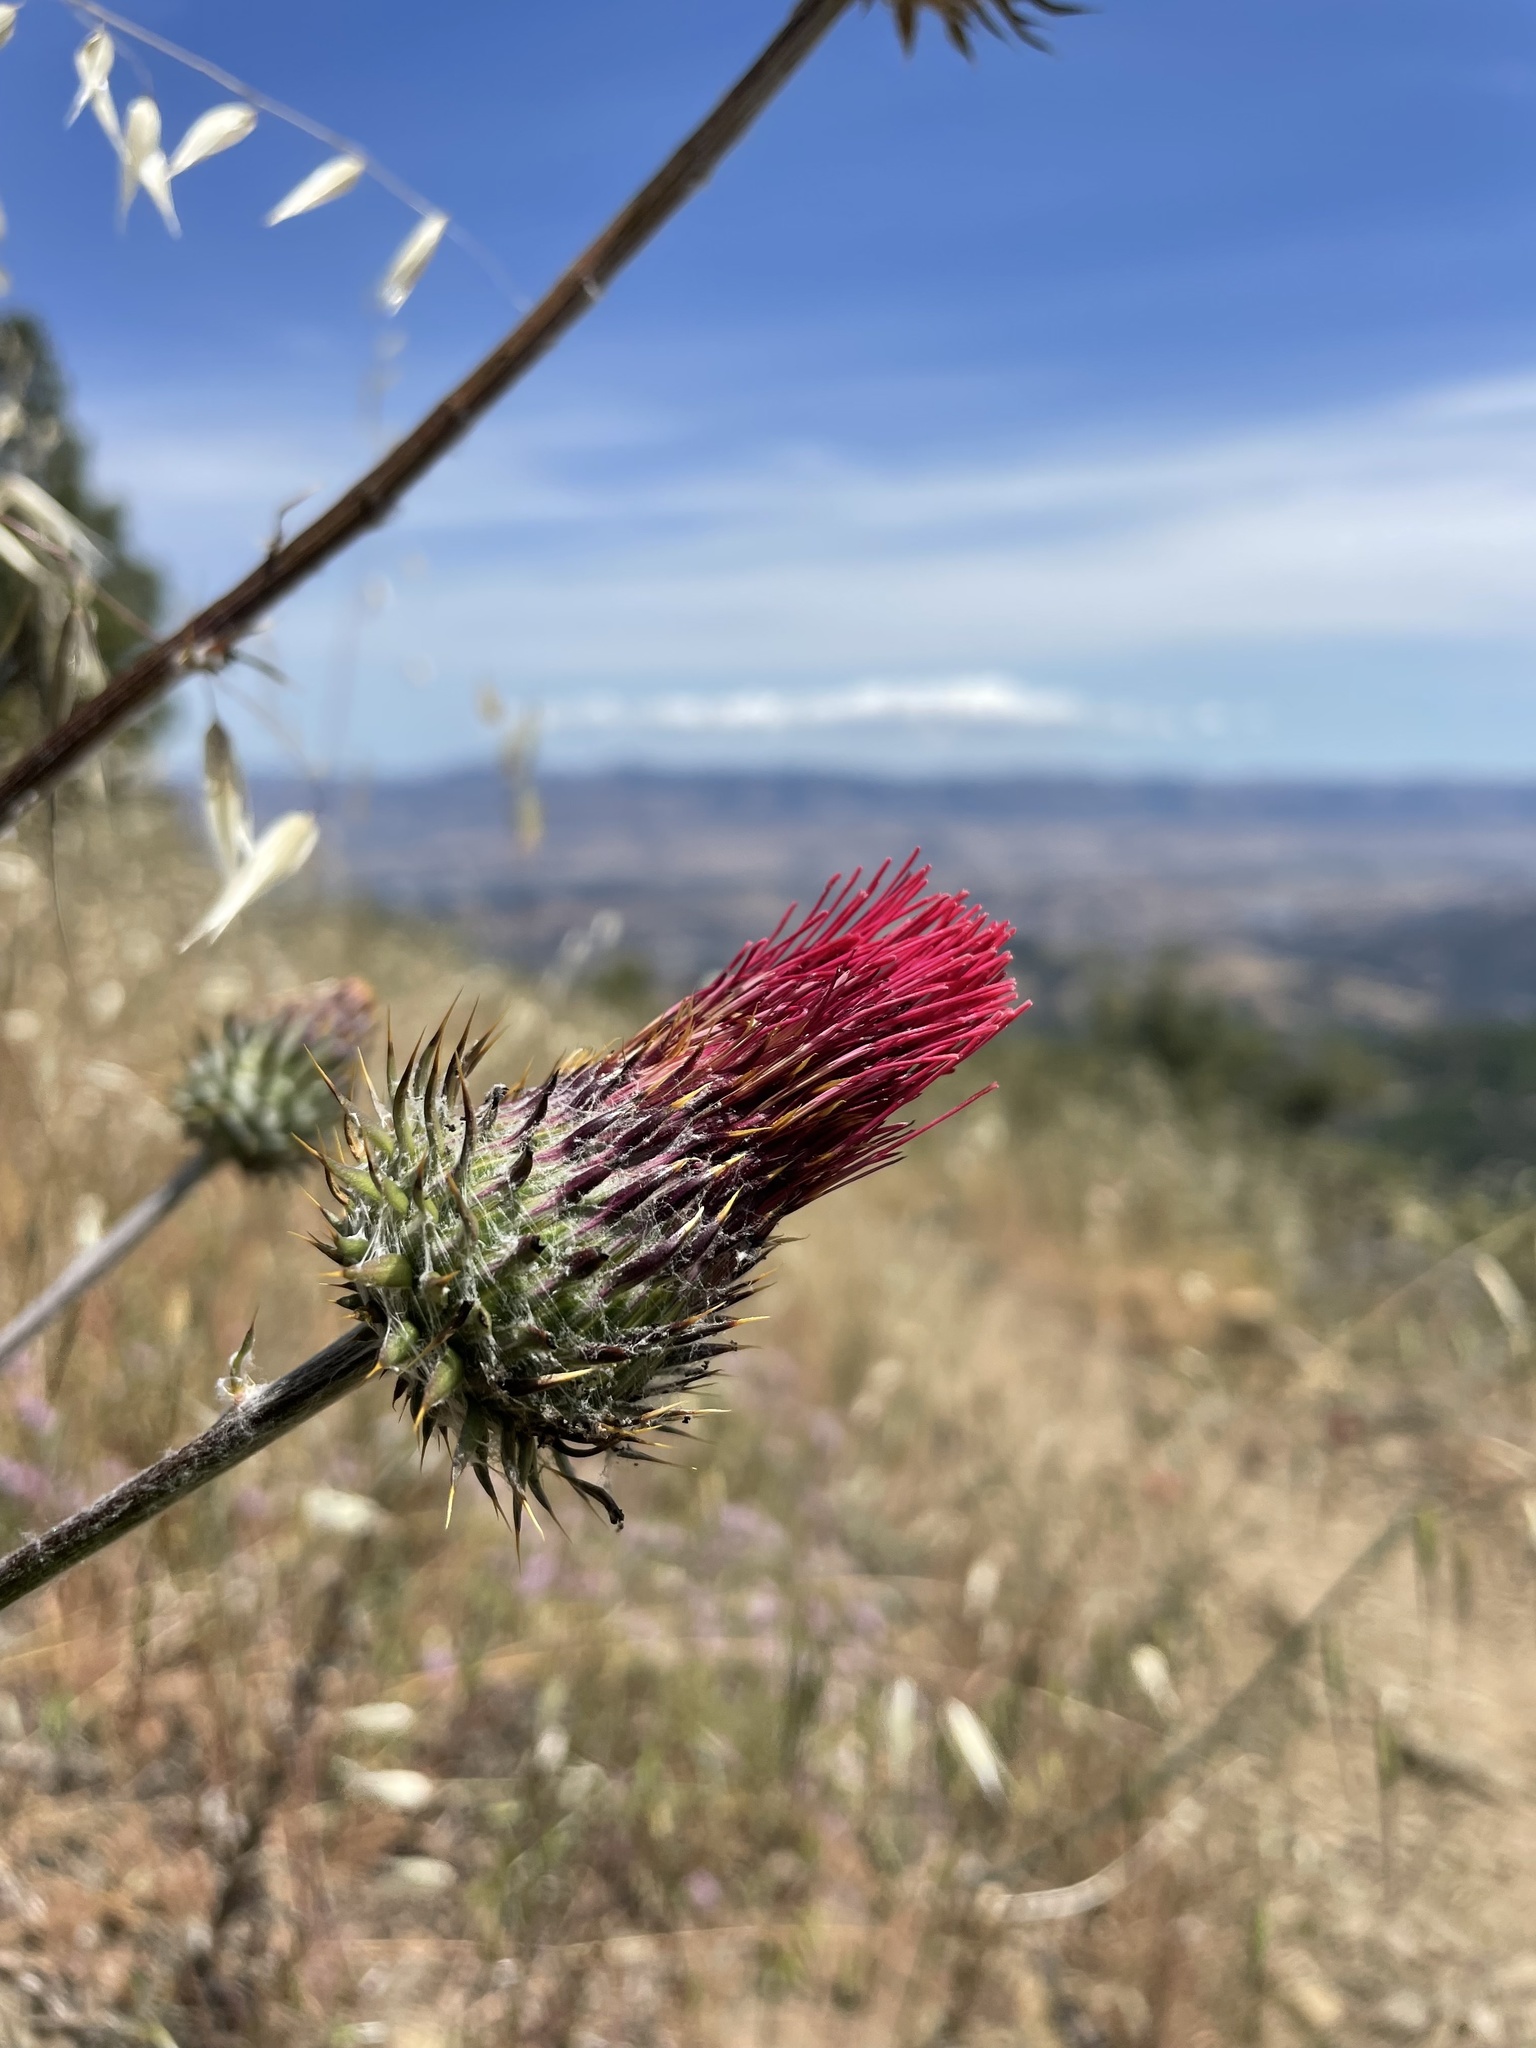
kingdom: Plantae
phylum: Tracheophyta
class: Magnoliopsida
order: Asterales
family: Asteraceae
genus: Cirsium
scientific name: Cirsium occidentale
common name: Western thistle
